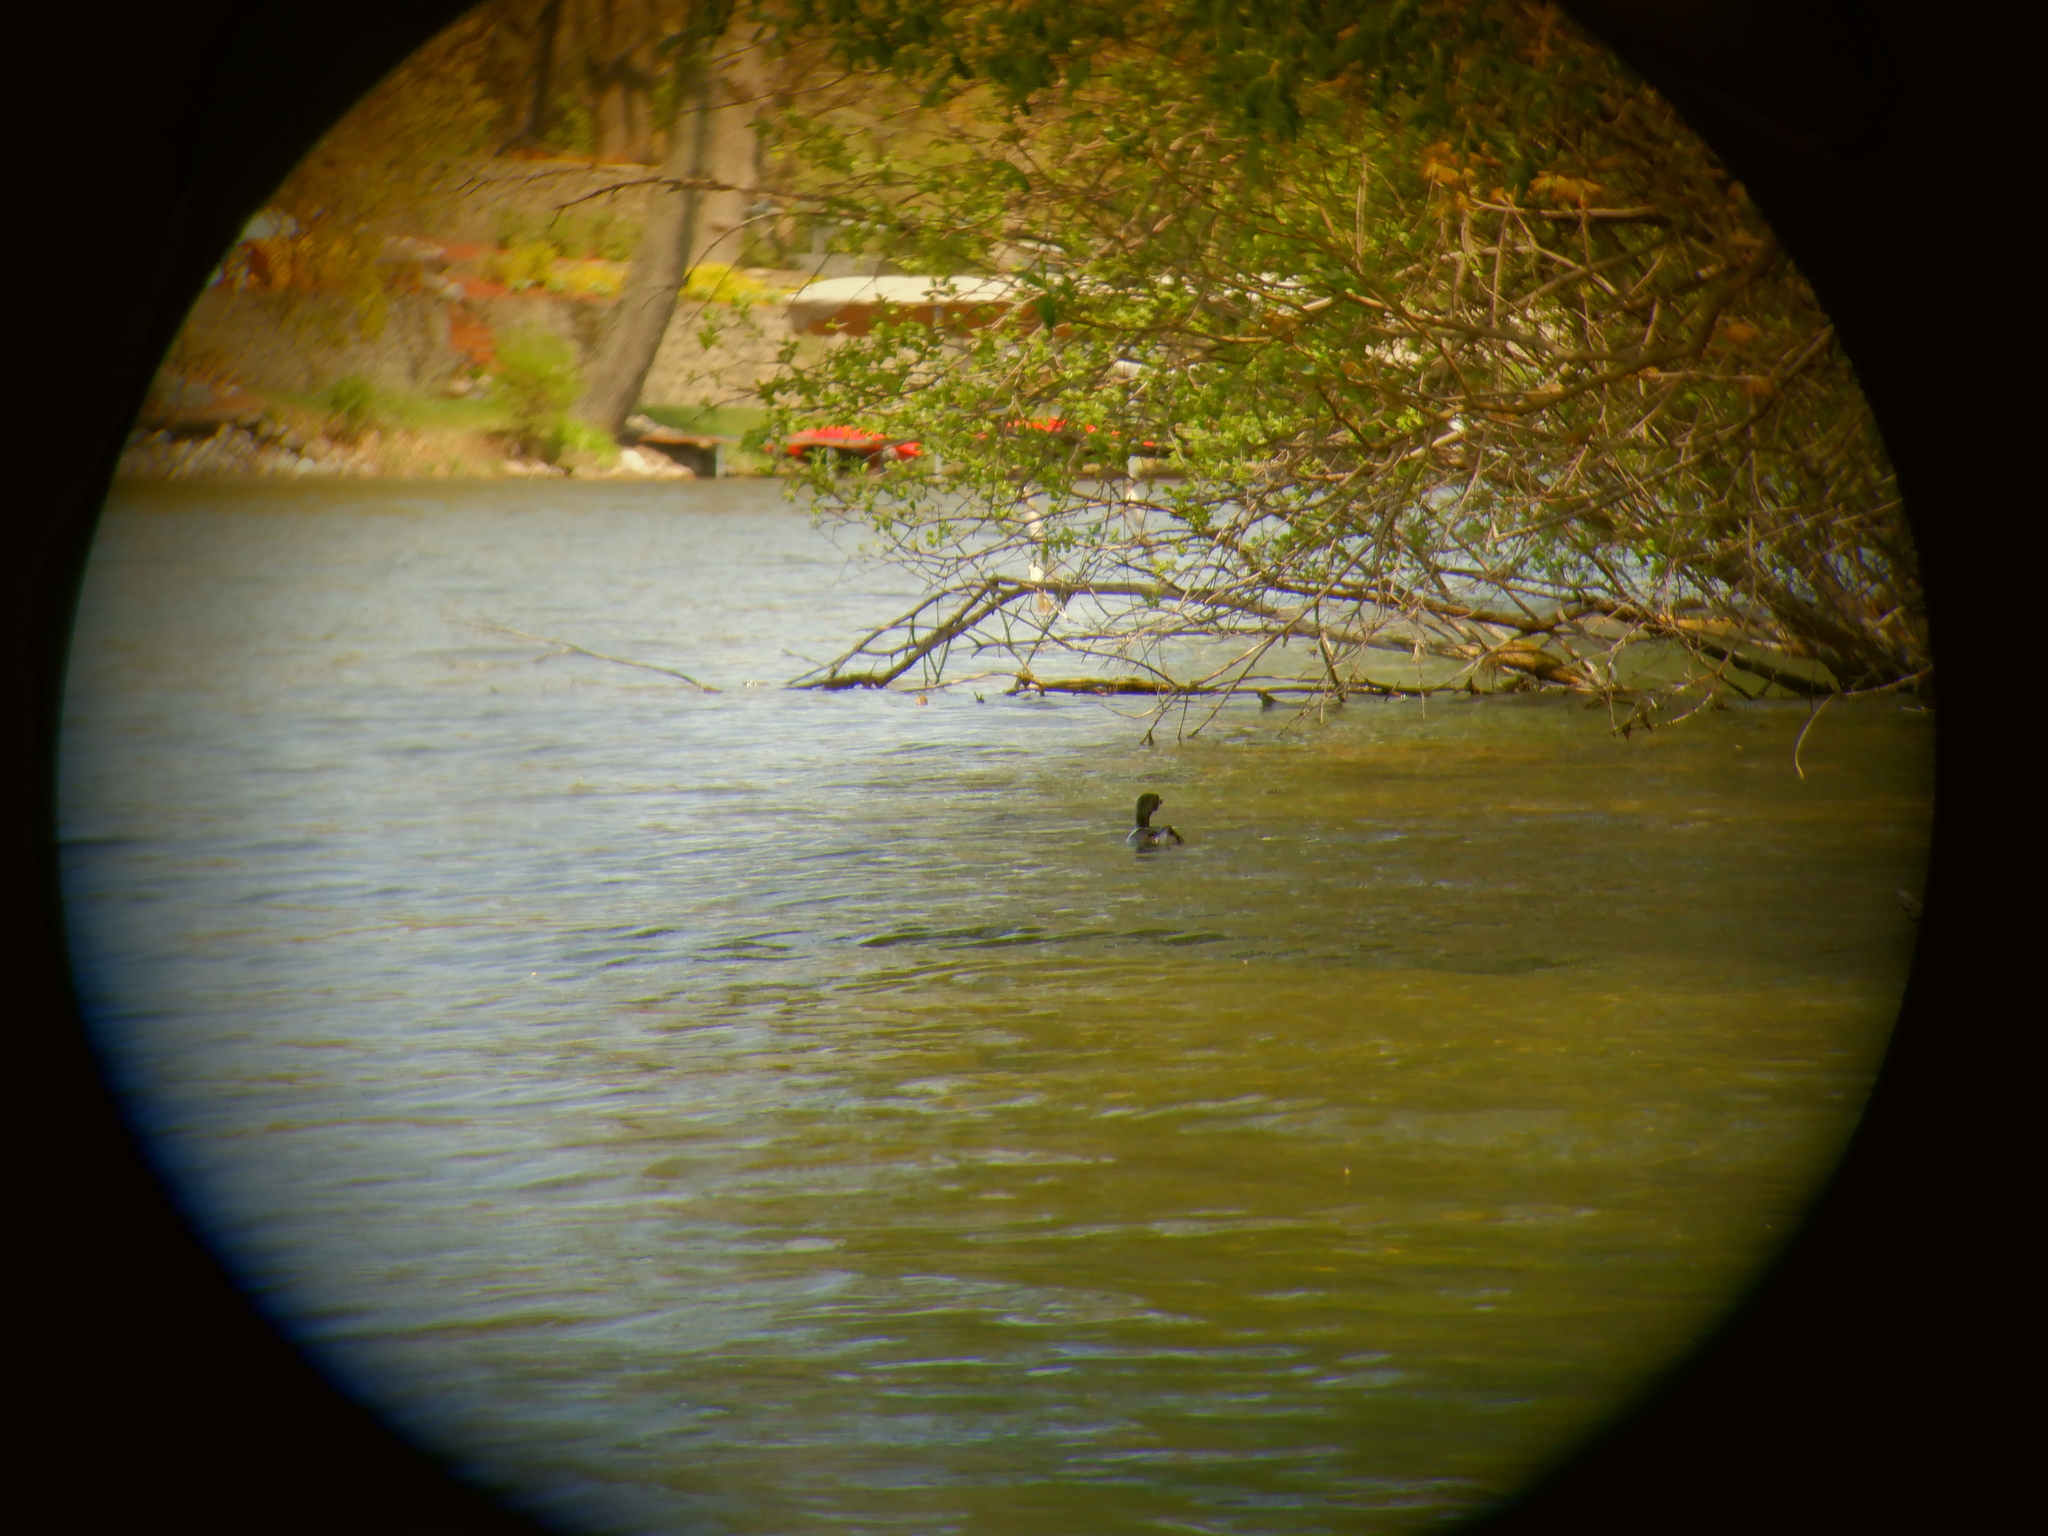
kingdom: Animalia
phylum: Chordata
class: Aves
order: Podicipediformes
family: Podicipedidae
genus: Podilymbus
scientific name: Podilymbus podiceps
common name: Pied-billed grebe
